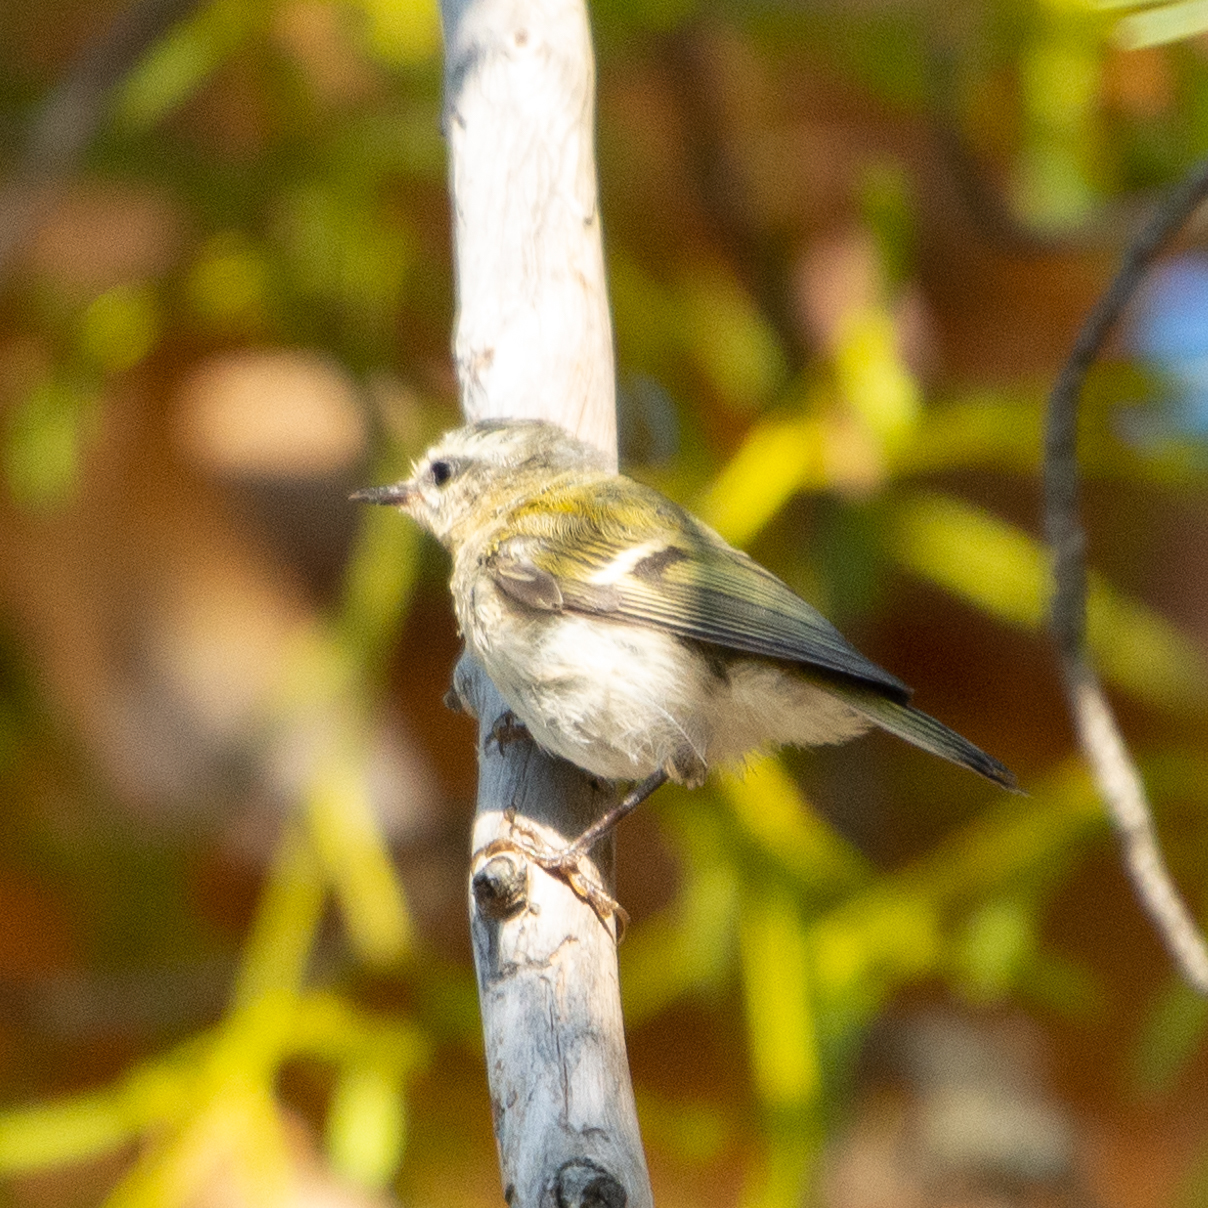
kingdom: Animalia
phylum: Chordata
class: Aves
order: Passeriformes
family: Regulidae
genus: Regulus
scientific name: Regulus ignicapilla
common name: Firecrest
